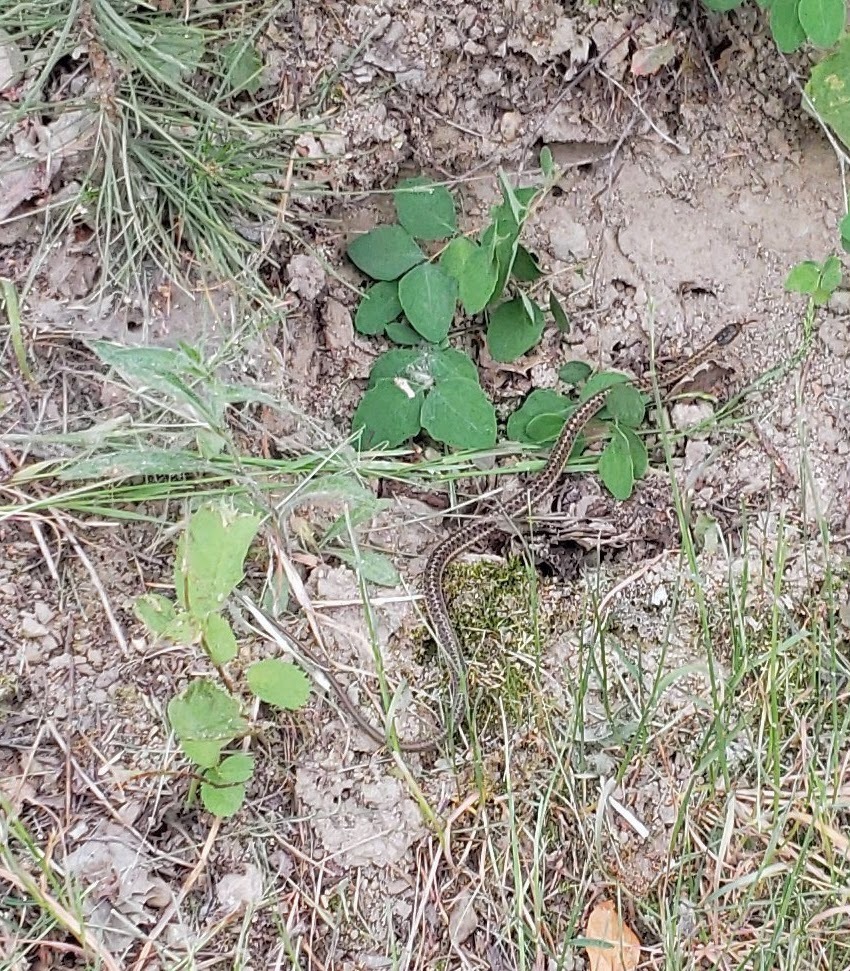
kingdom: Animalia
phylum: Chordata
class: Squamata
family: Colubridae
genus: Thamnophis
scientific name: Thamnophis elegans
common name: Western terrestrial garter snake
